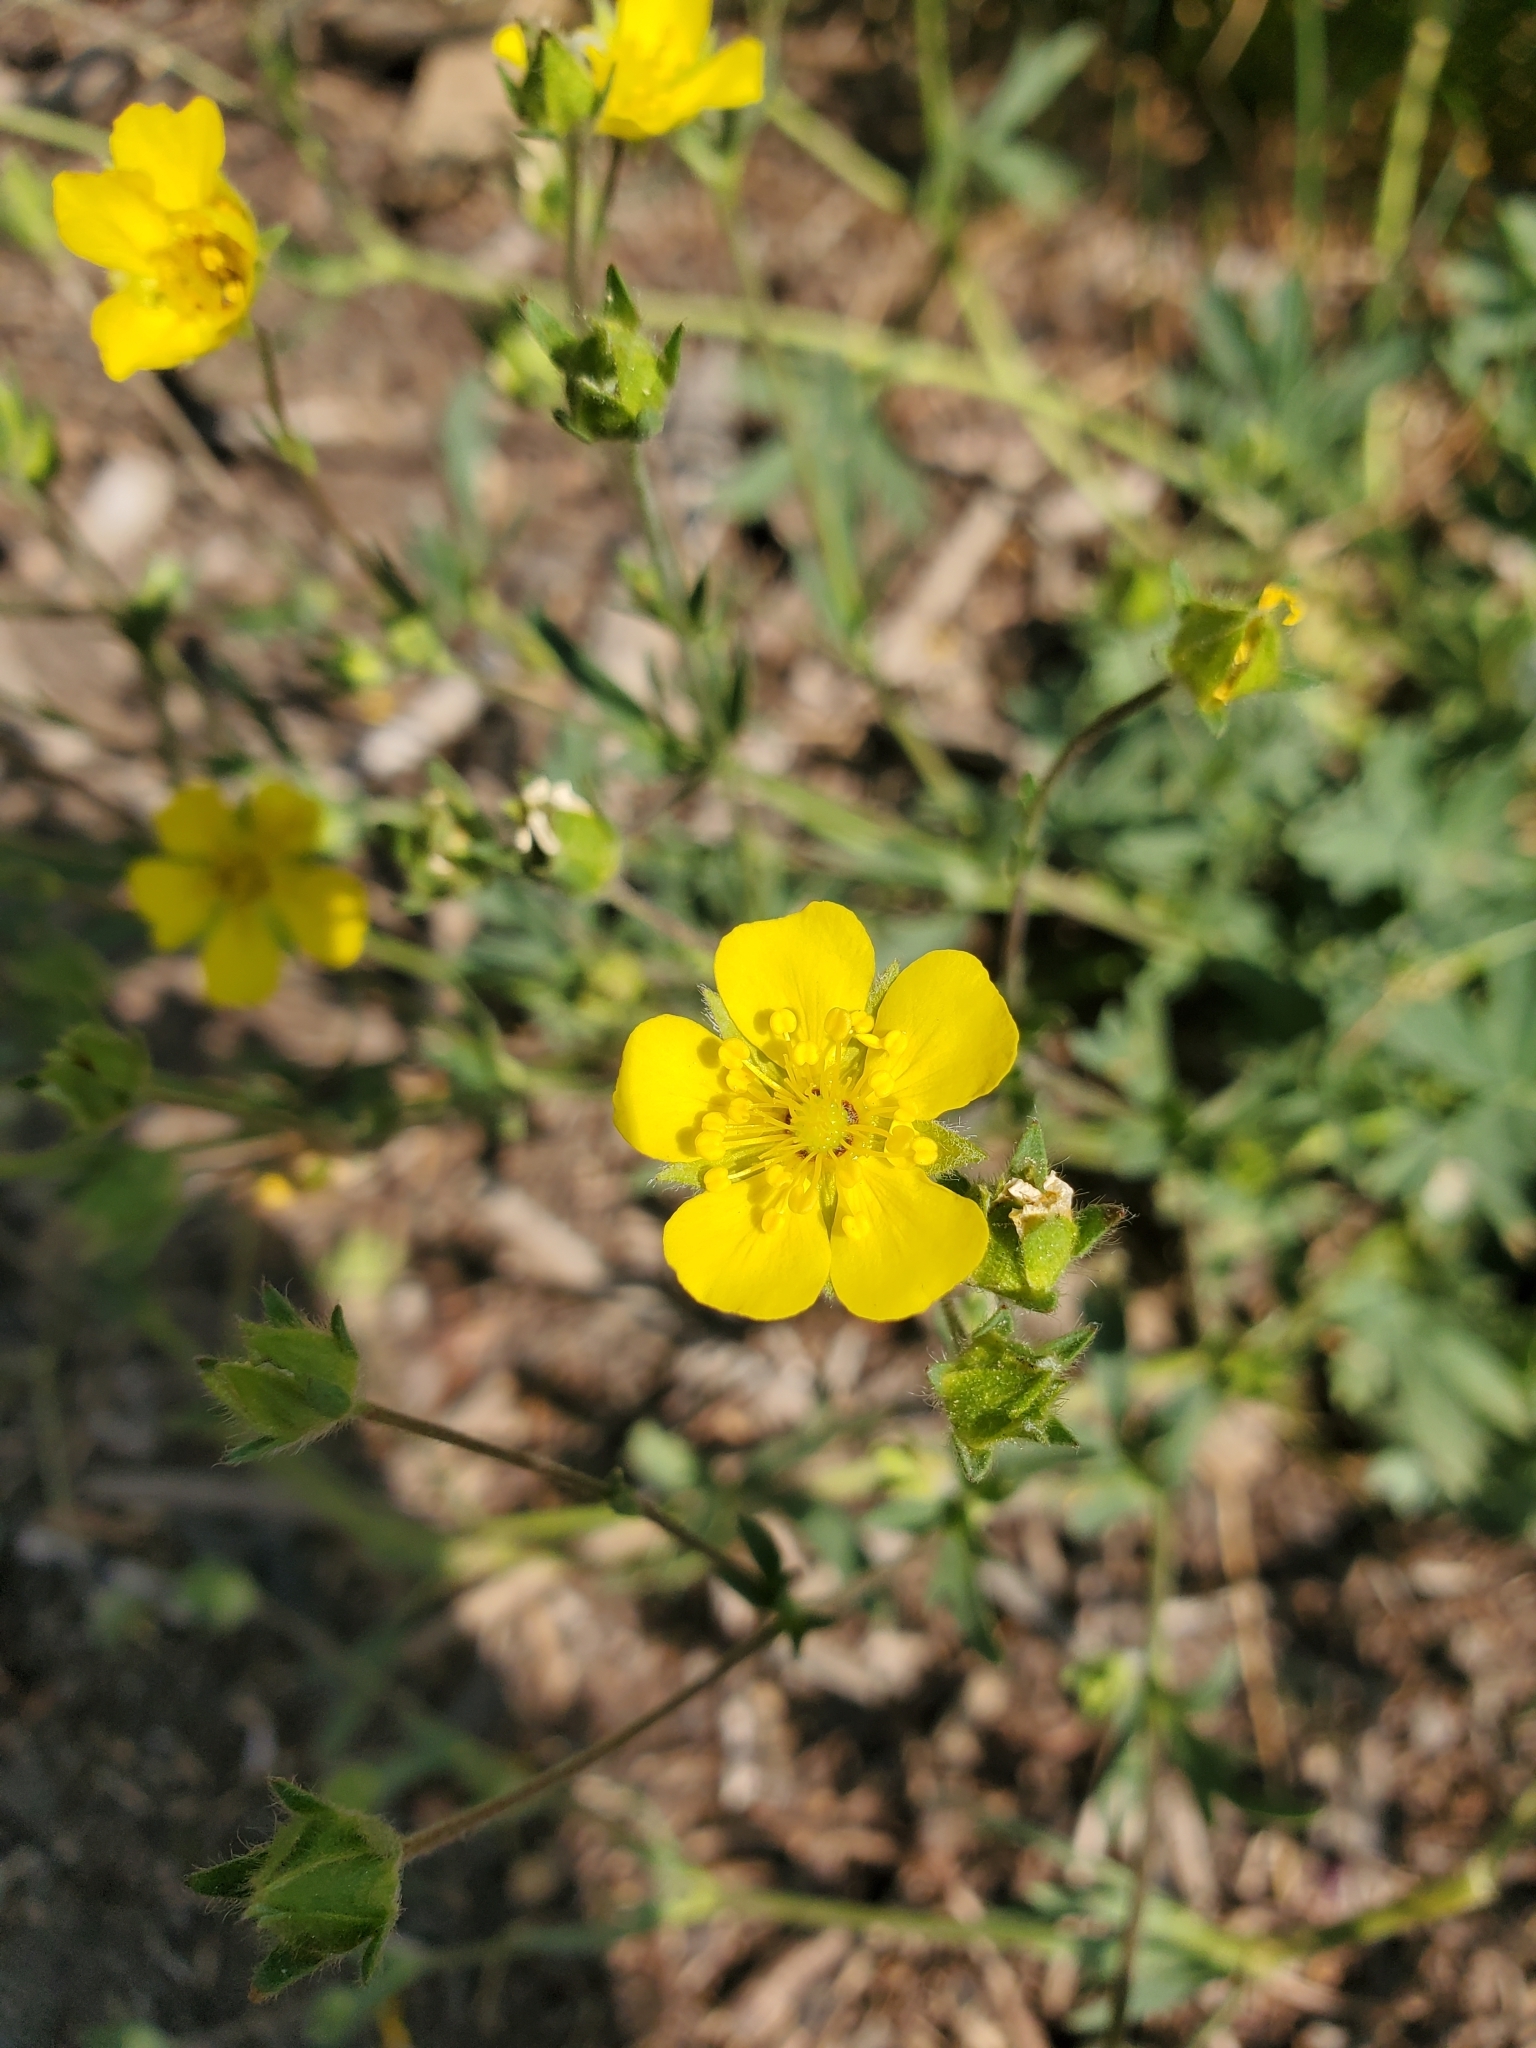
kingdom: Plantae
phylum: Tracheophyta
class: Magnoliopsida
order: Rosales
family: Rosaceae
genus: Potentilla
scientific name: Potentilla glaucophylla
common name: Blue-leaved cinquefoil
